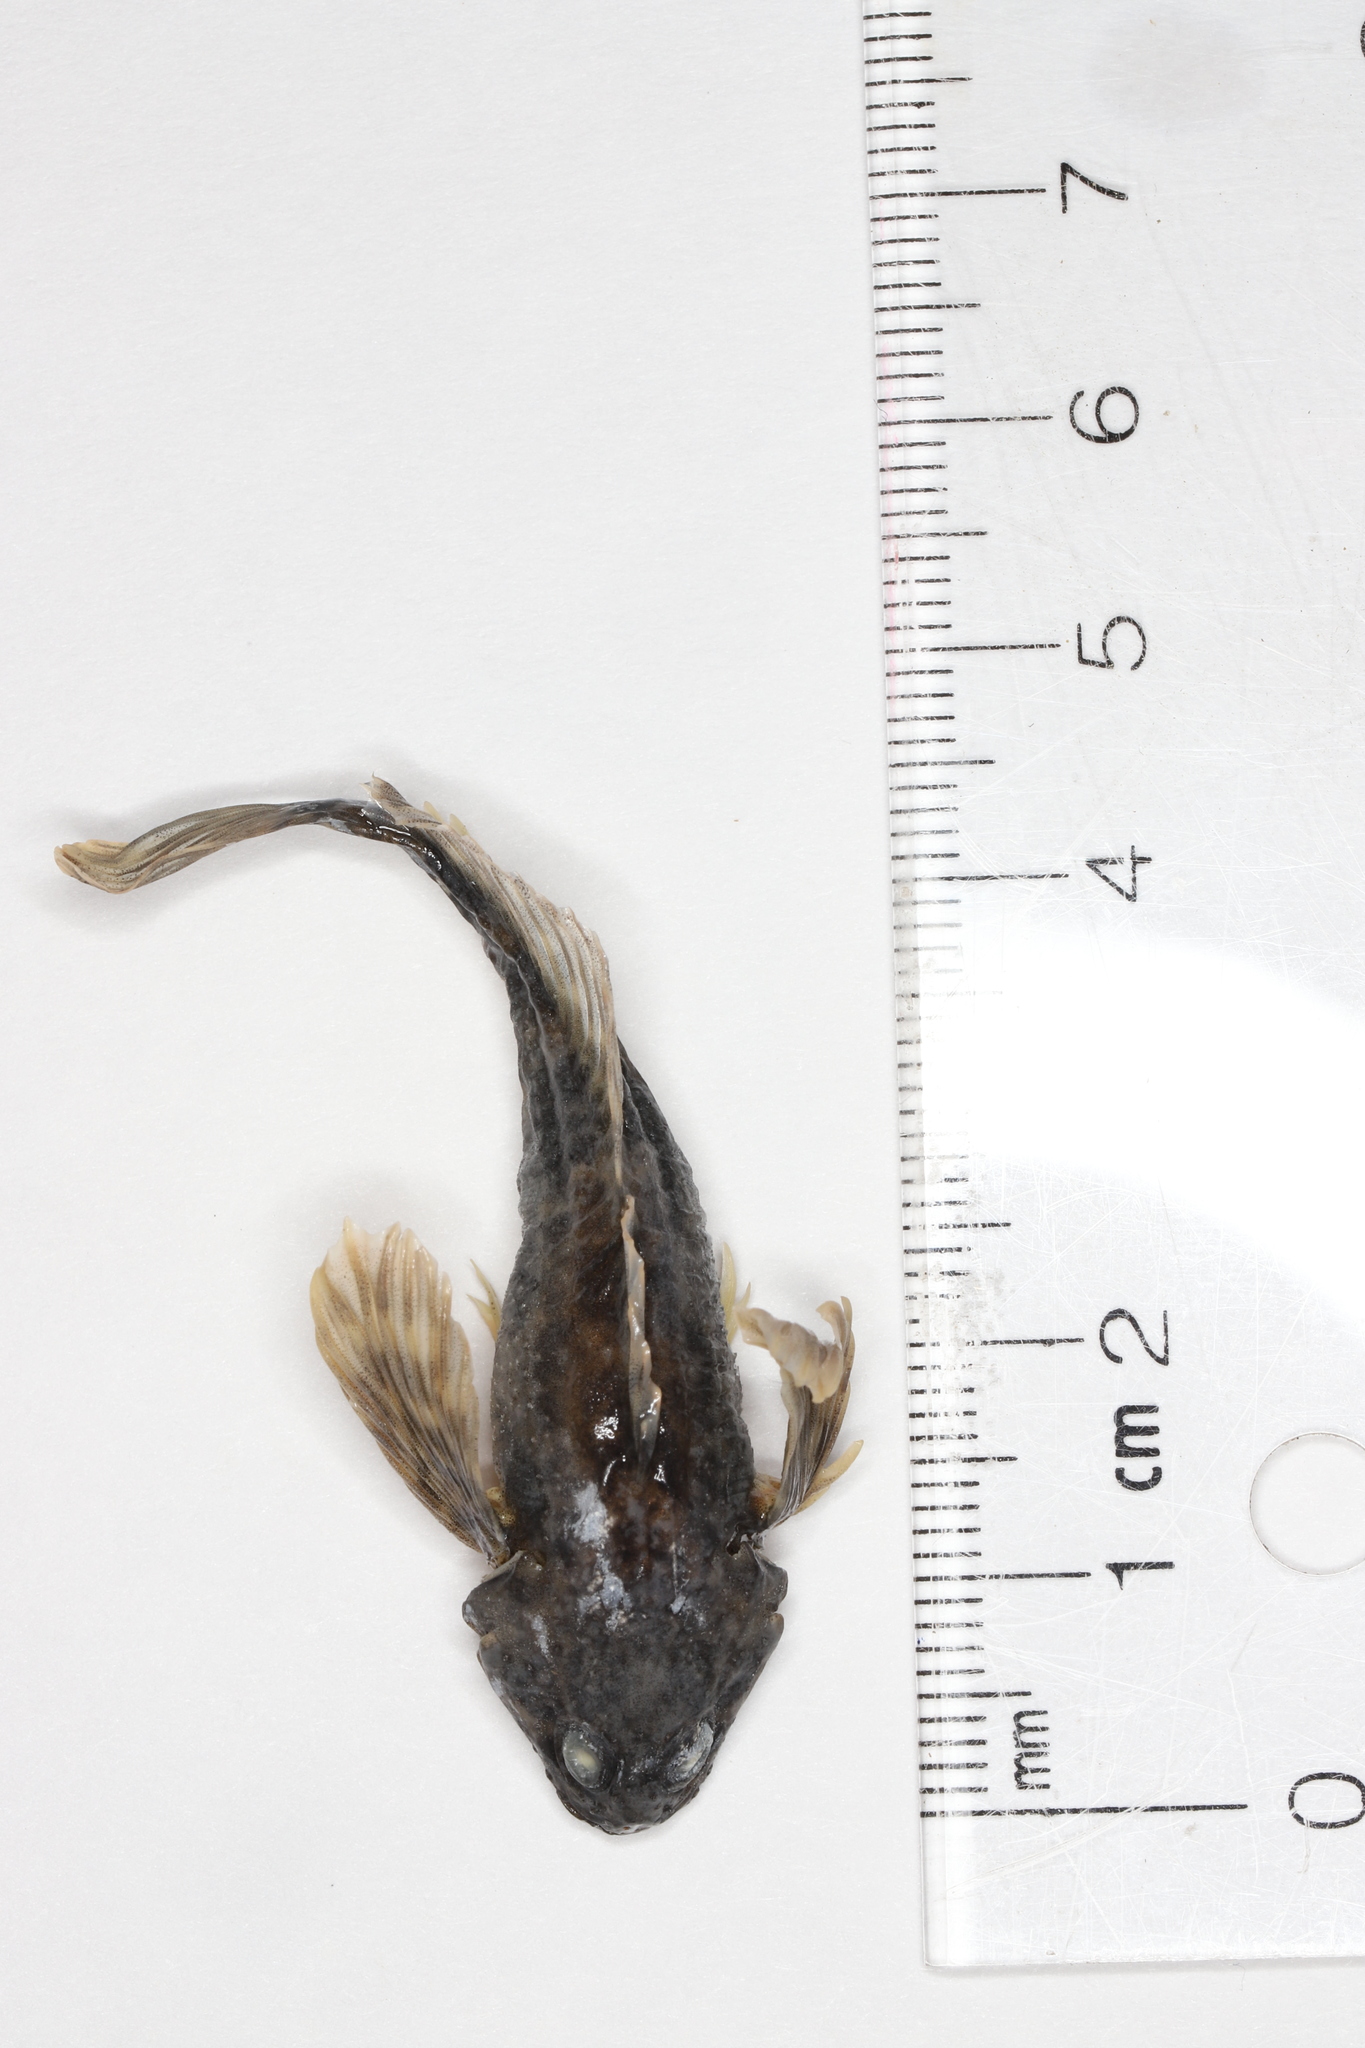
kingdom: Animalia
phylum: Chordata
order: Scorpaeniformes
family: Cottidae
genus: Cottus
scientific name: Cottus cognatus
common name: Slimy sculpin
